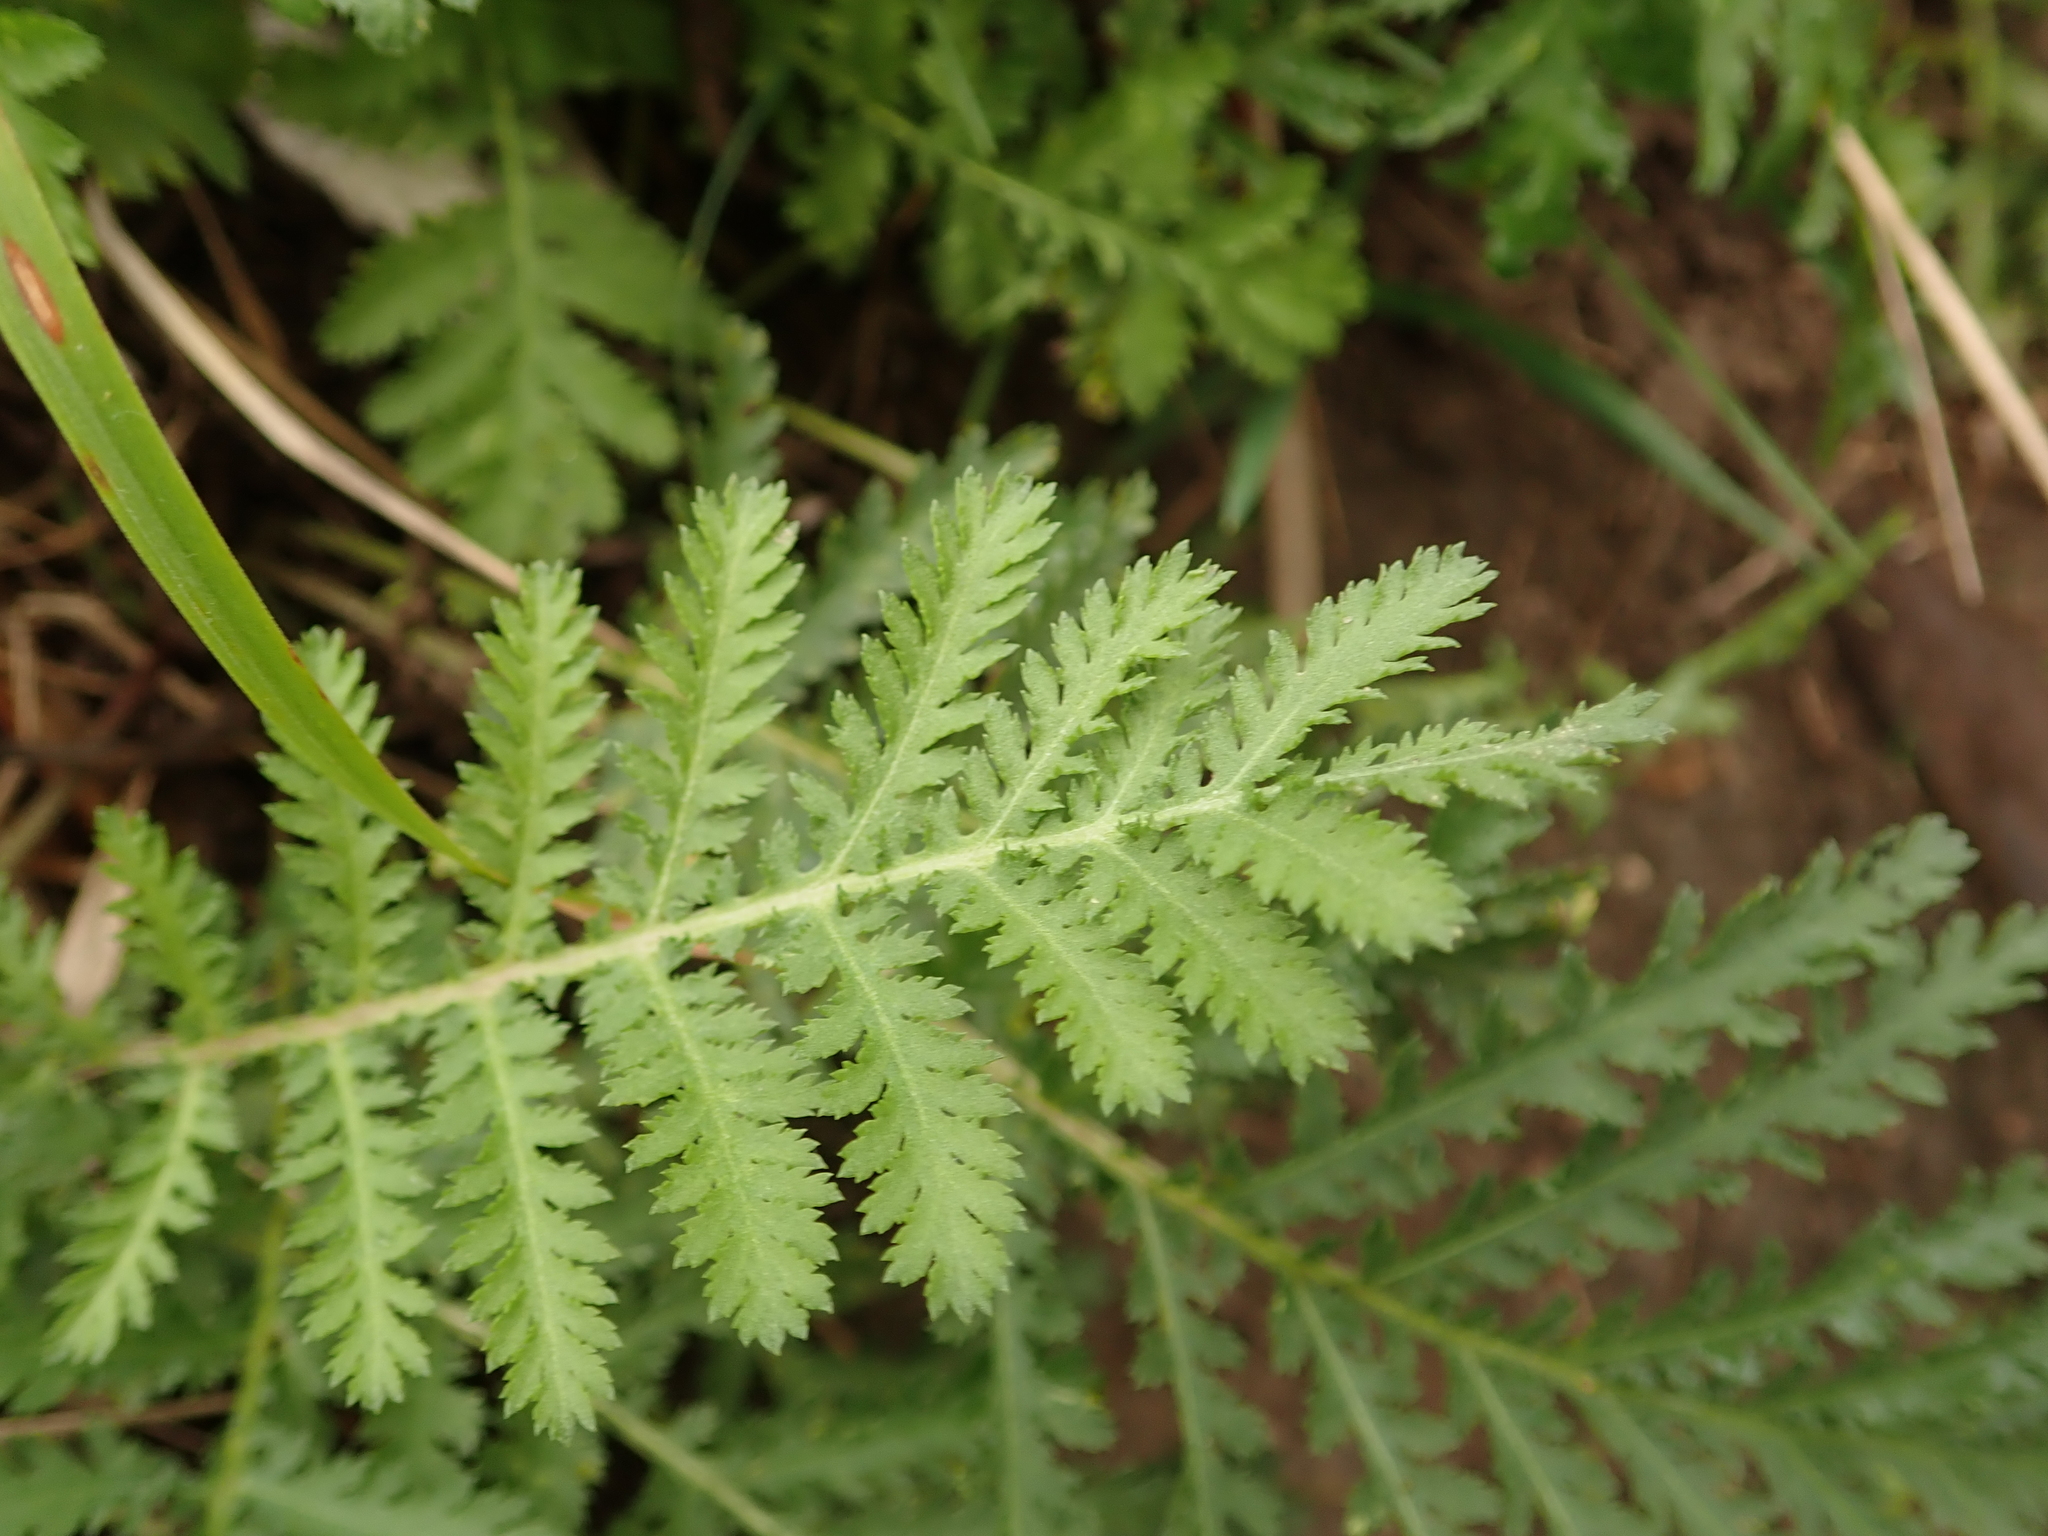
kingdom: Plantae
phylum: Tracheophyta
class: Magnoliopsida
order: Asterales
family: Asteraceae
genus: Tanacetum
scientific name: Tanacetum vulgare
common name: Common tansy
